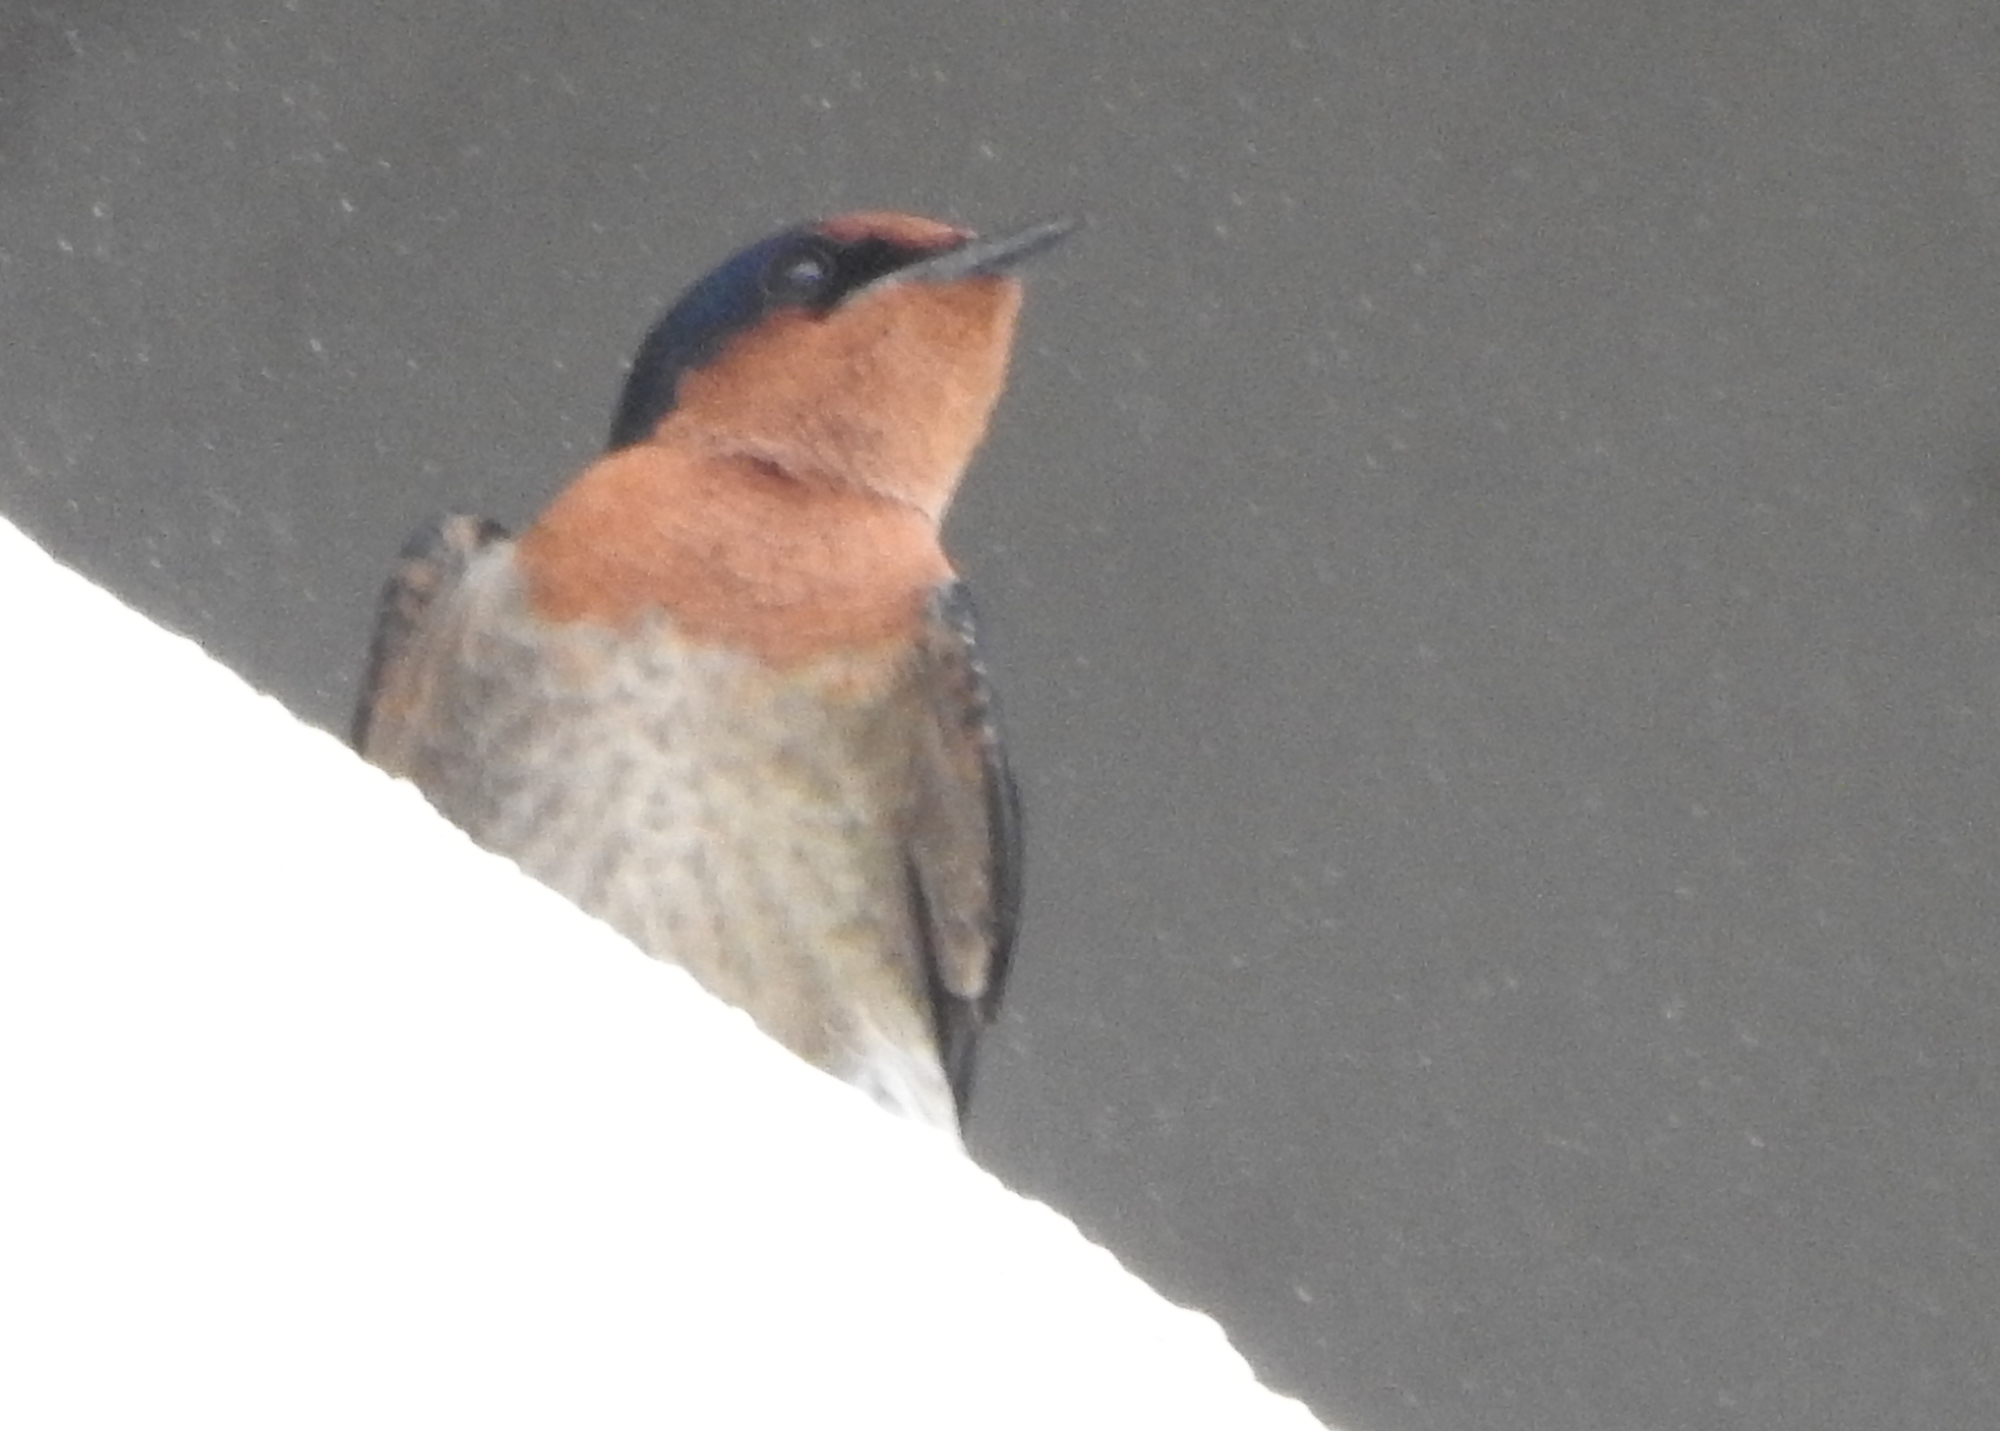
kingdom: Animalia
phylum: Chordata
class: Aves
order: Passeriformes
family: Hirundinidae
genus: Hirundo
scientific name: Hirundo tahitica
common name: Pacific swallow
